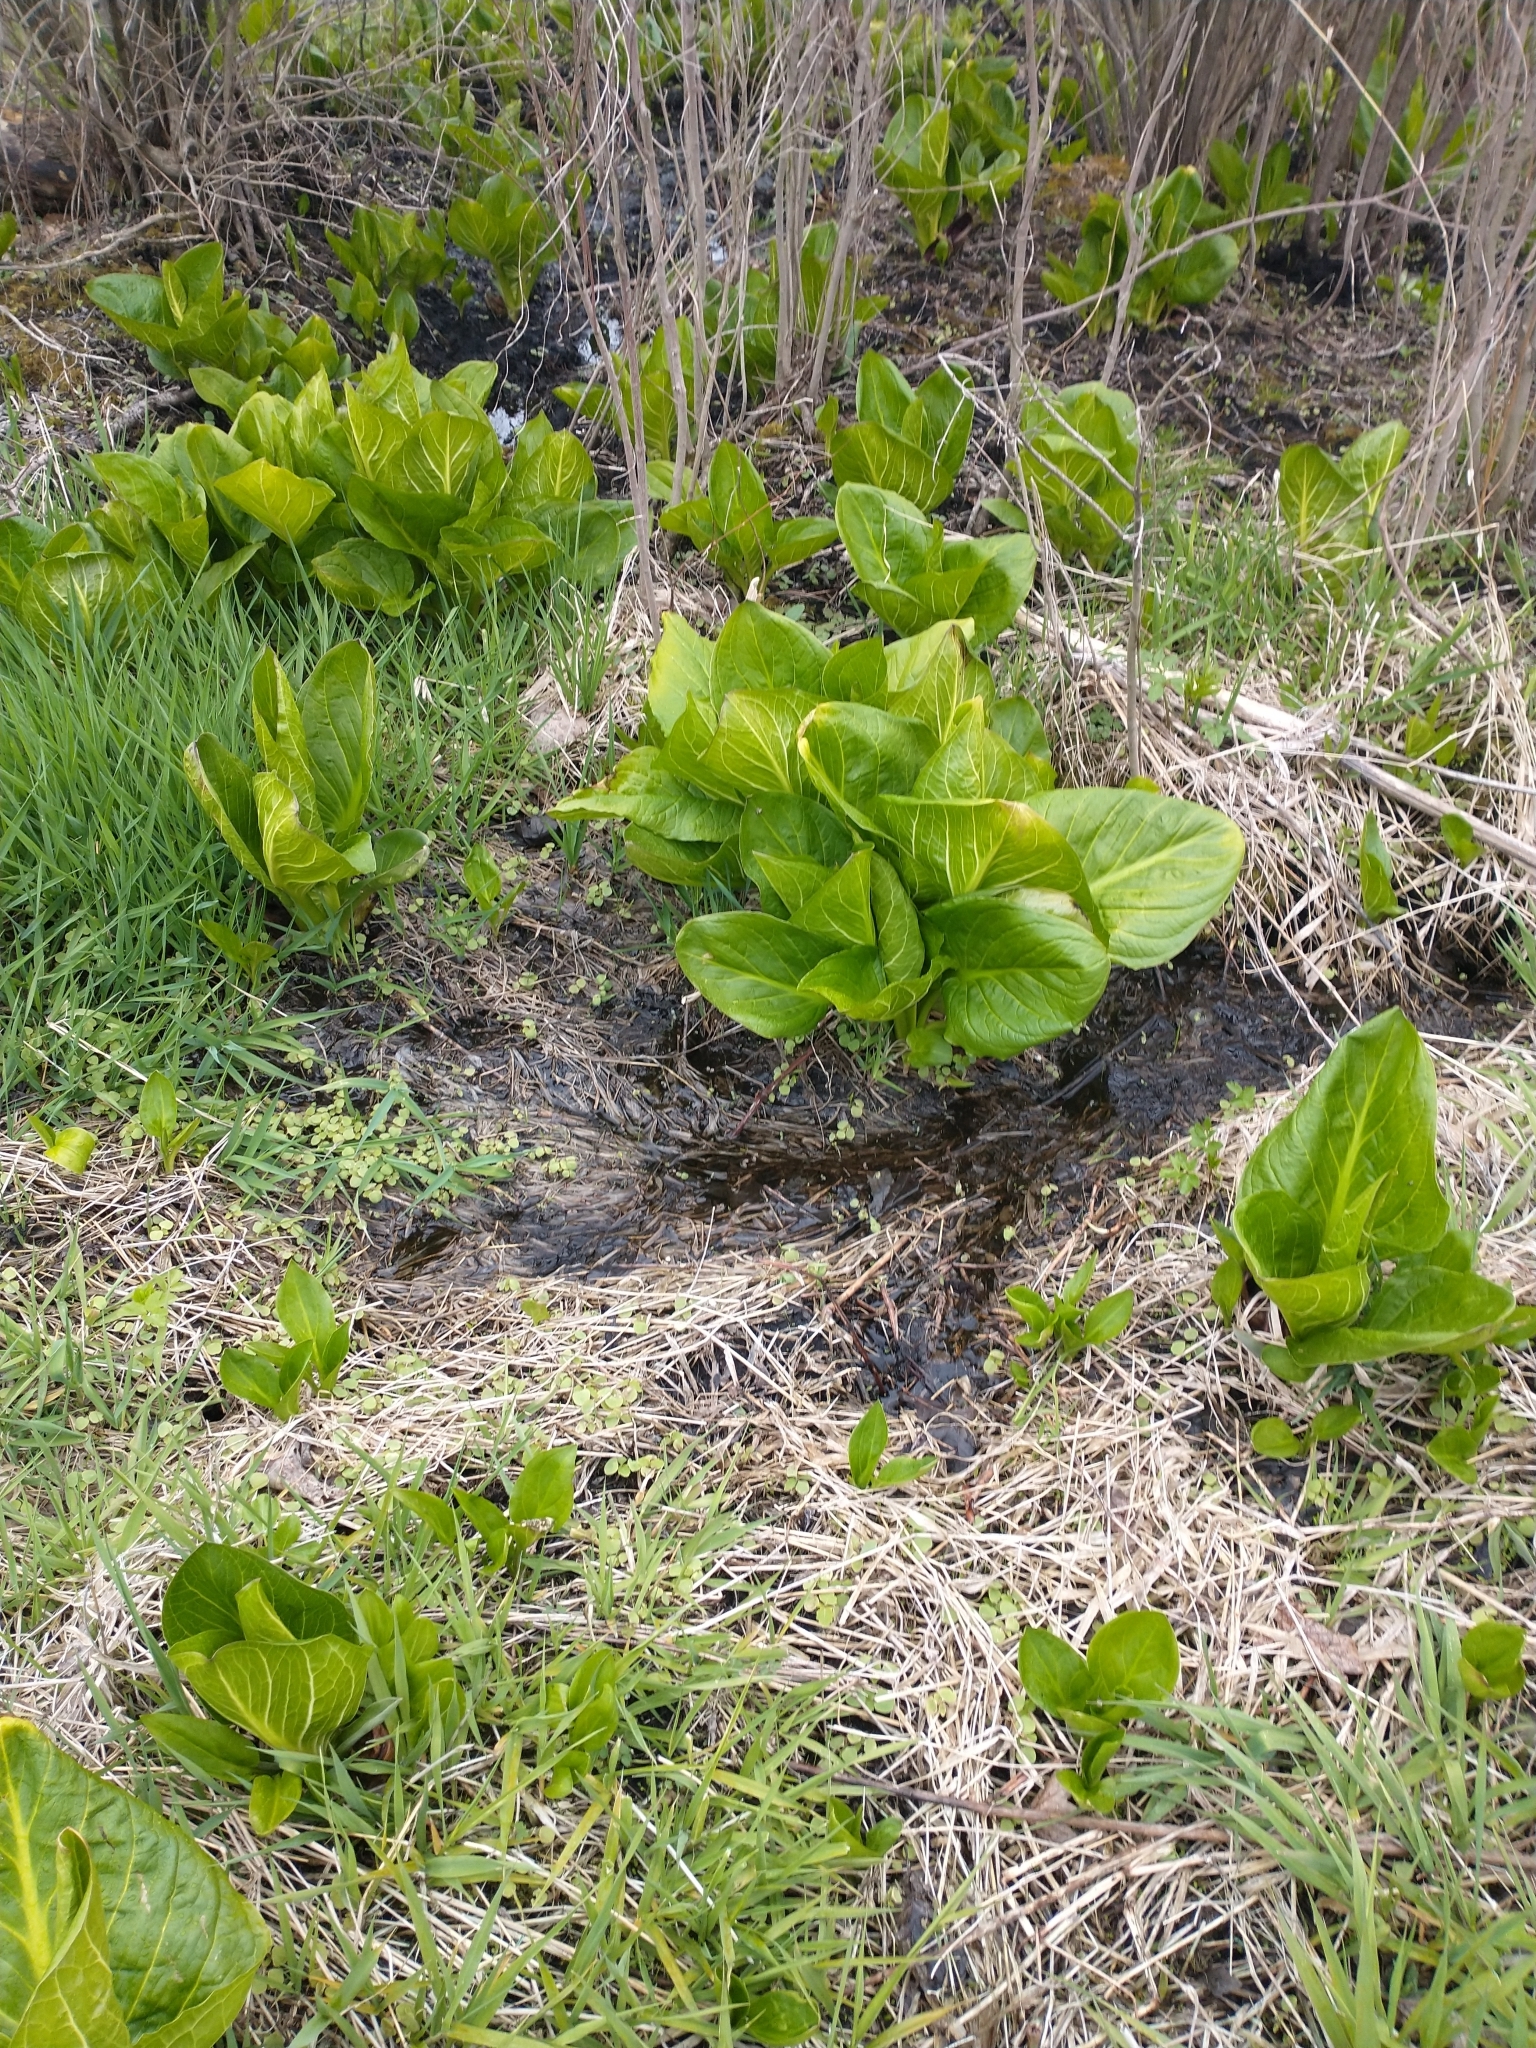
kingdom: Plantae
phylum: Tracheophyta
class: Liliopsida
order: Alismatales
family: Araceae
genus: Symplocarpus
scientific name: Symplocarpus foetidus
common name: Eastern skunk cabbage
